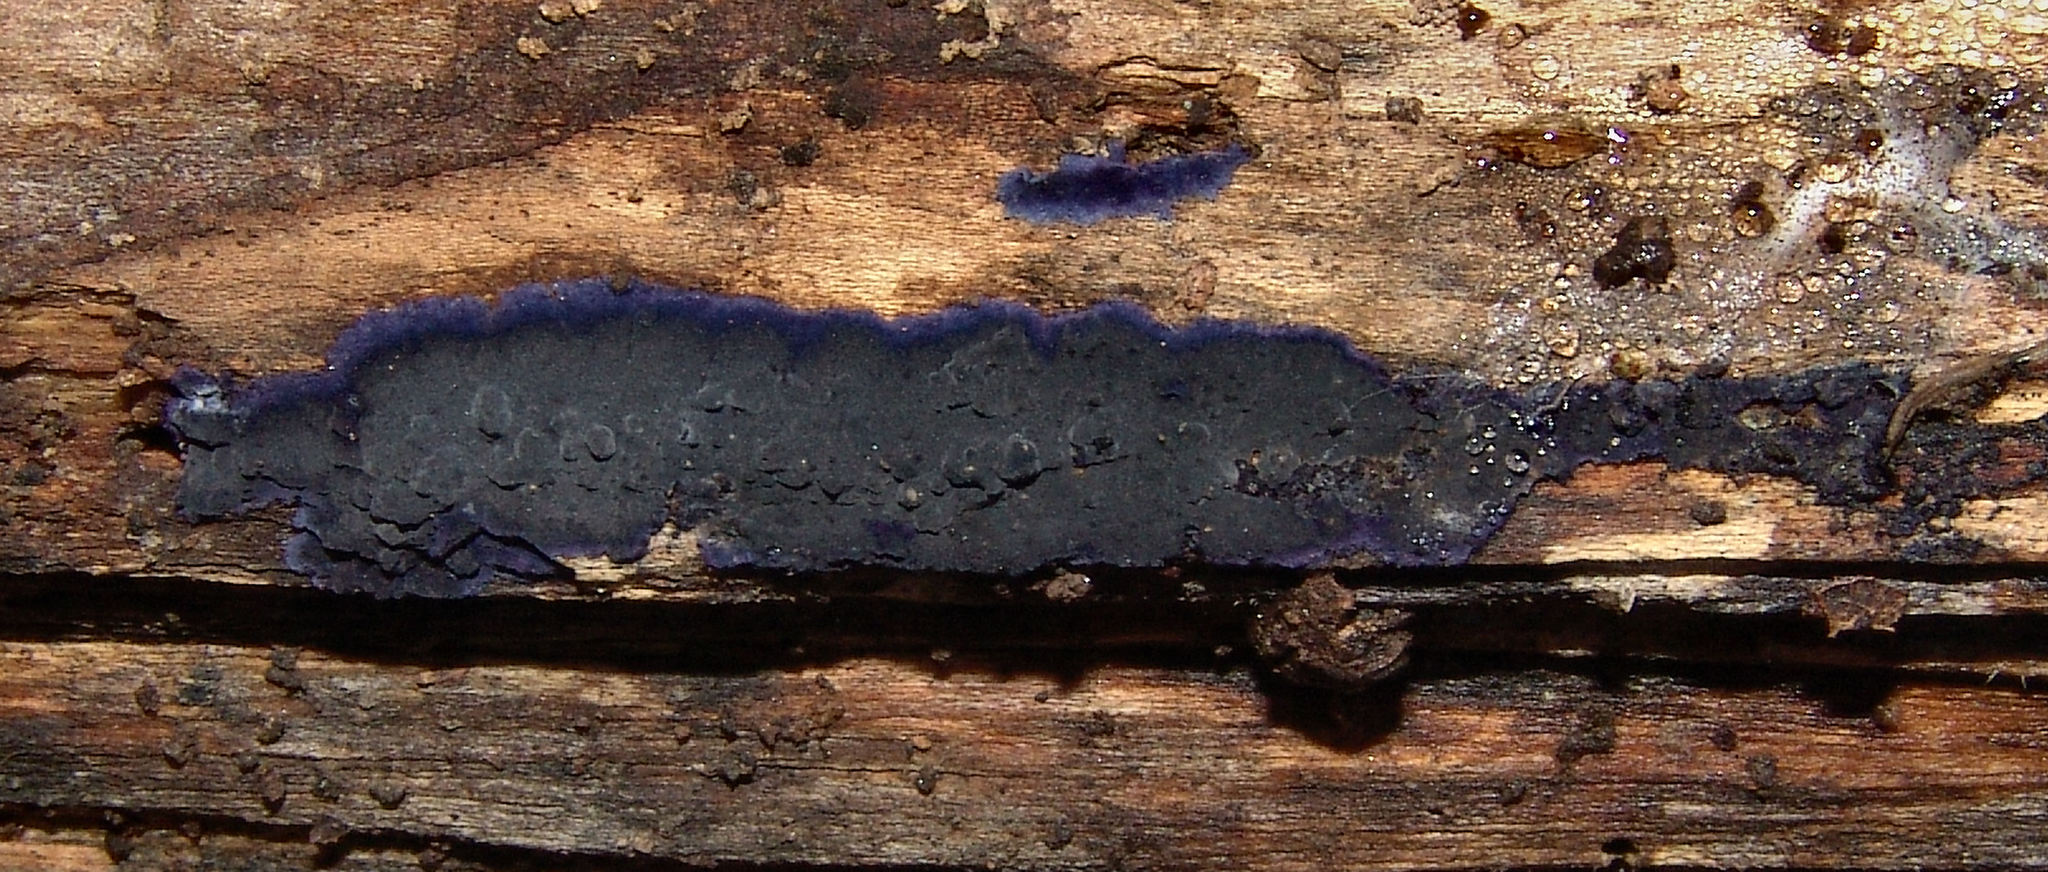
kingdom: Fungi
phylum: Basidiomycota
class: Agaricomycetes
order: Polyporales
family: Phanerochaetaceae
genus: Terana
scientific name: Terana coerulea
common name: Cobalt crust
